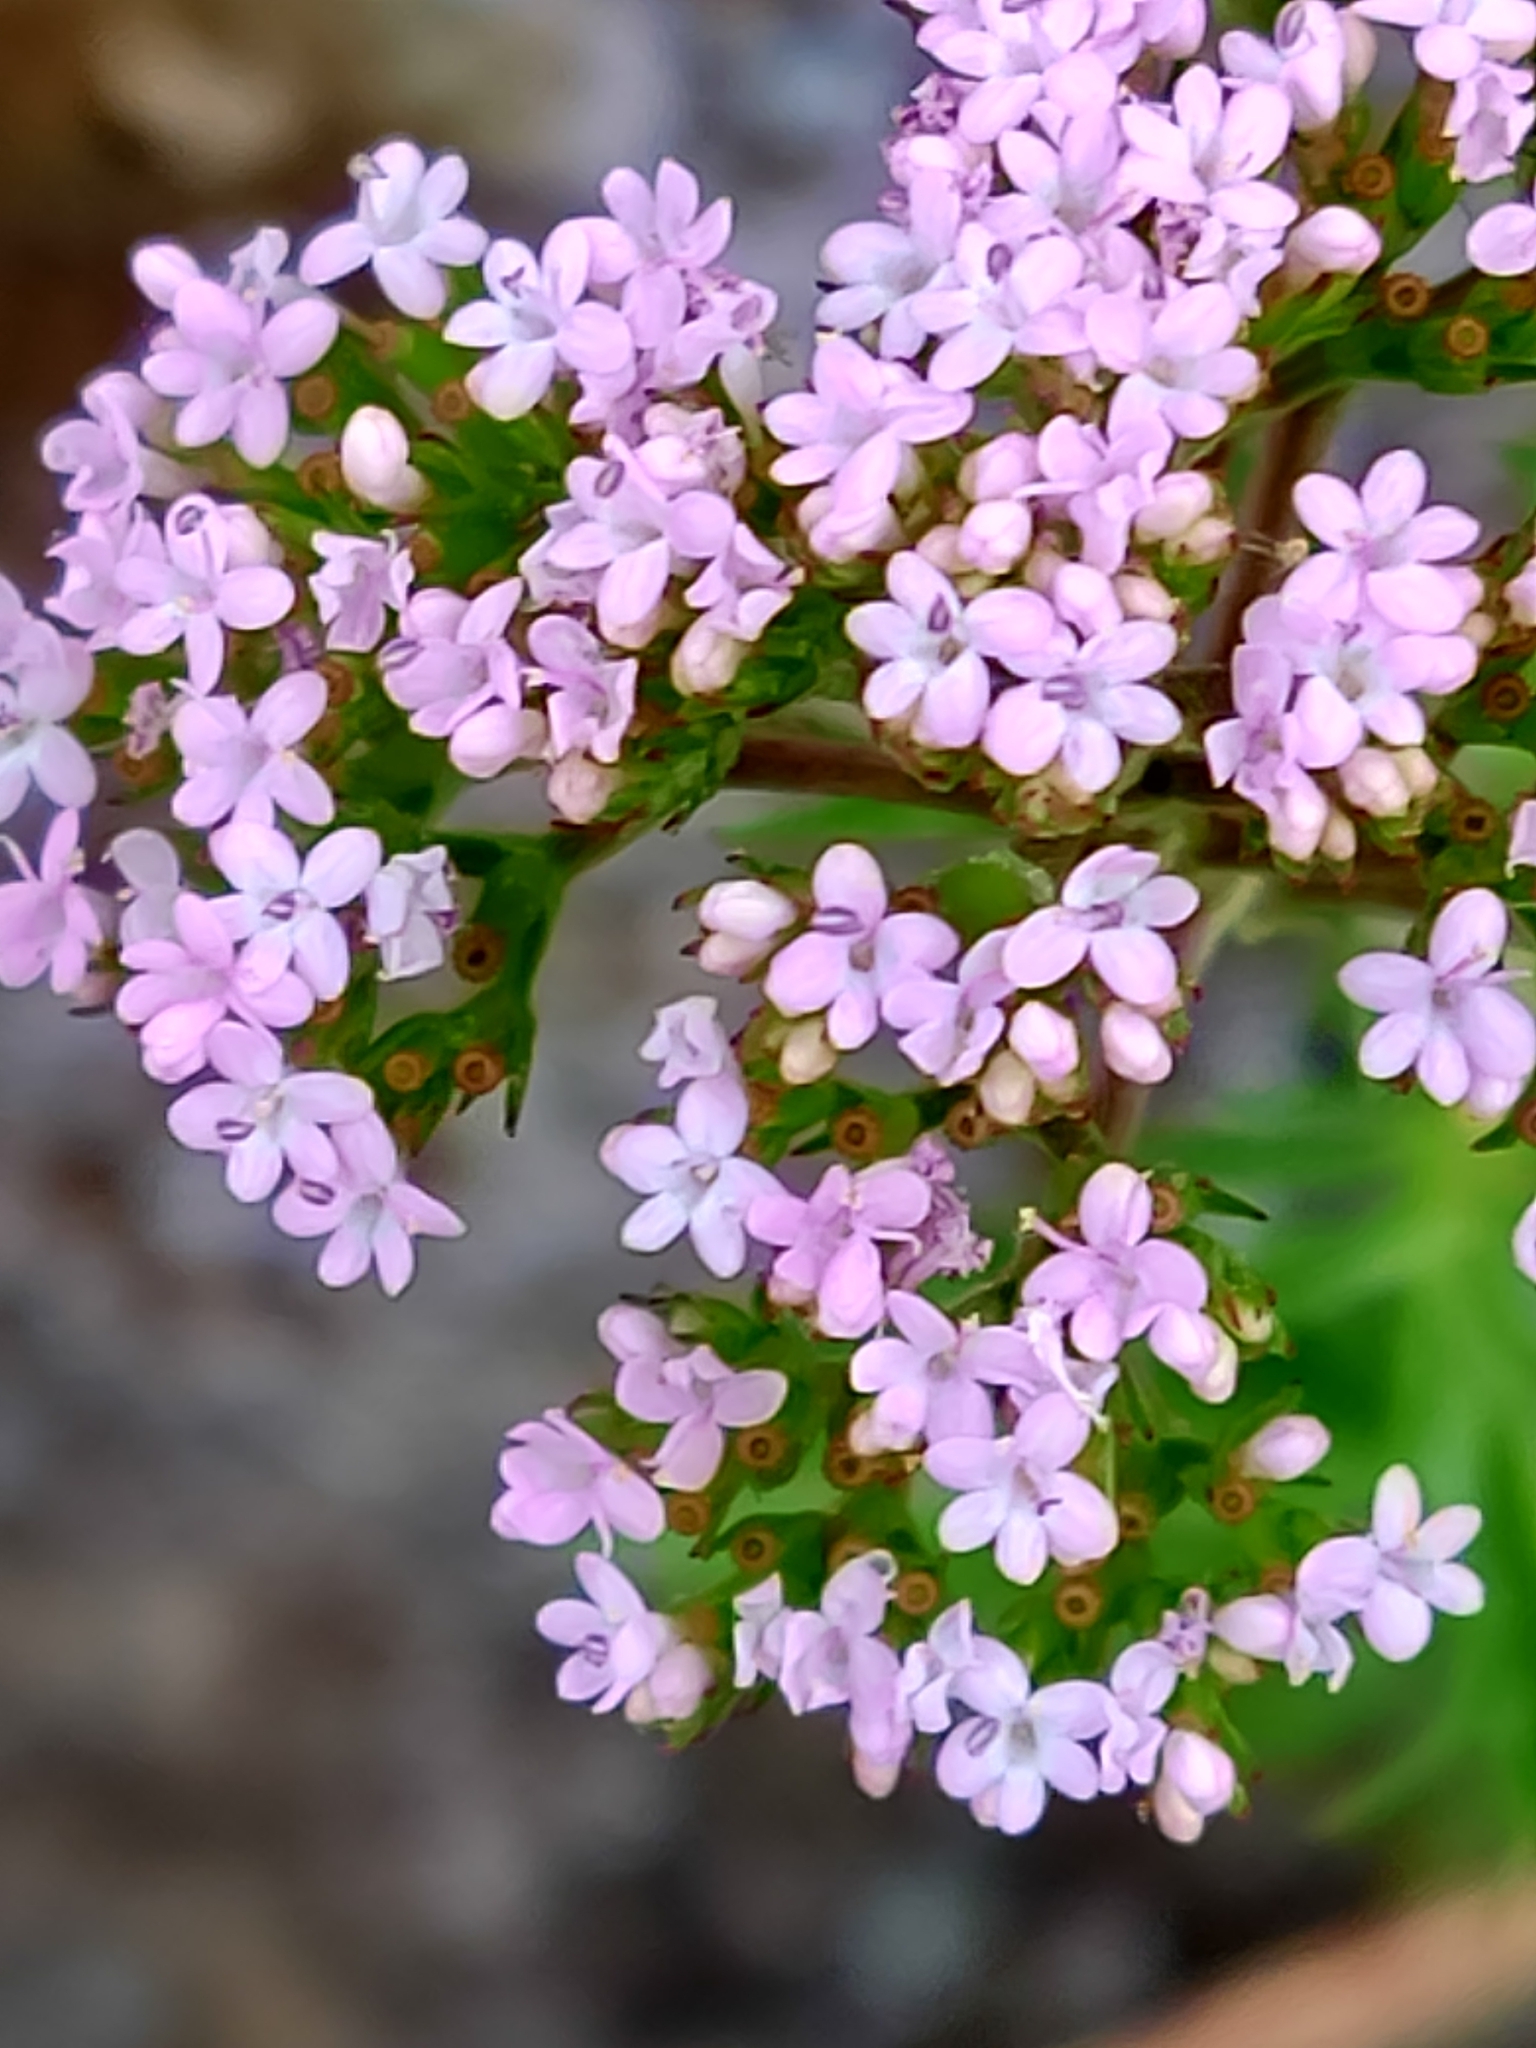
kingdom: Plantae
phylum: Tracheophyta
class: Magnoliopsida
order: Dipsacales
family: Caprifoliaceae
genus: Centranthus
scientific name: Centranthus calcitrapae
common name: Annual valerian
